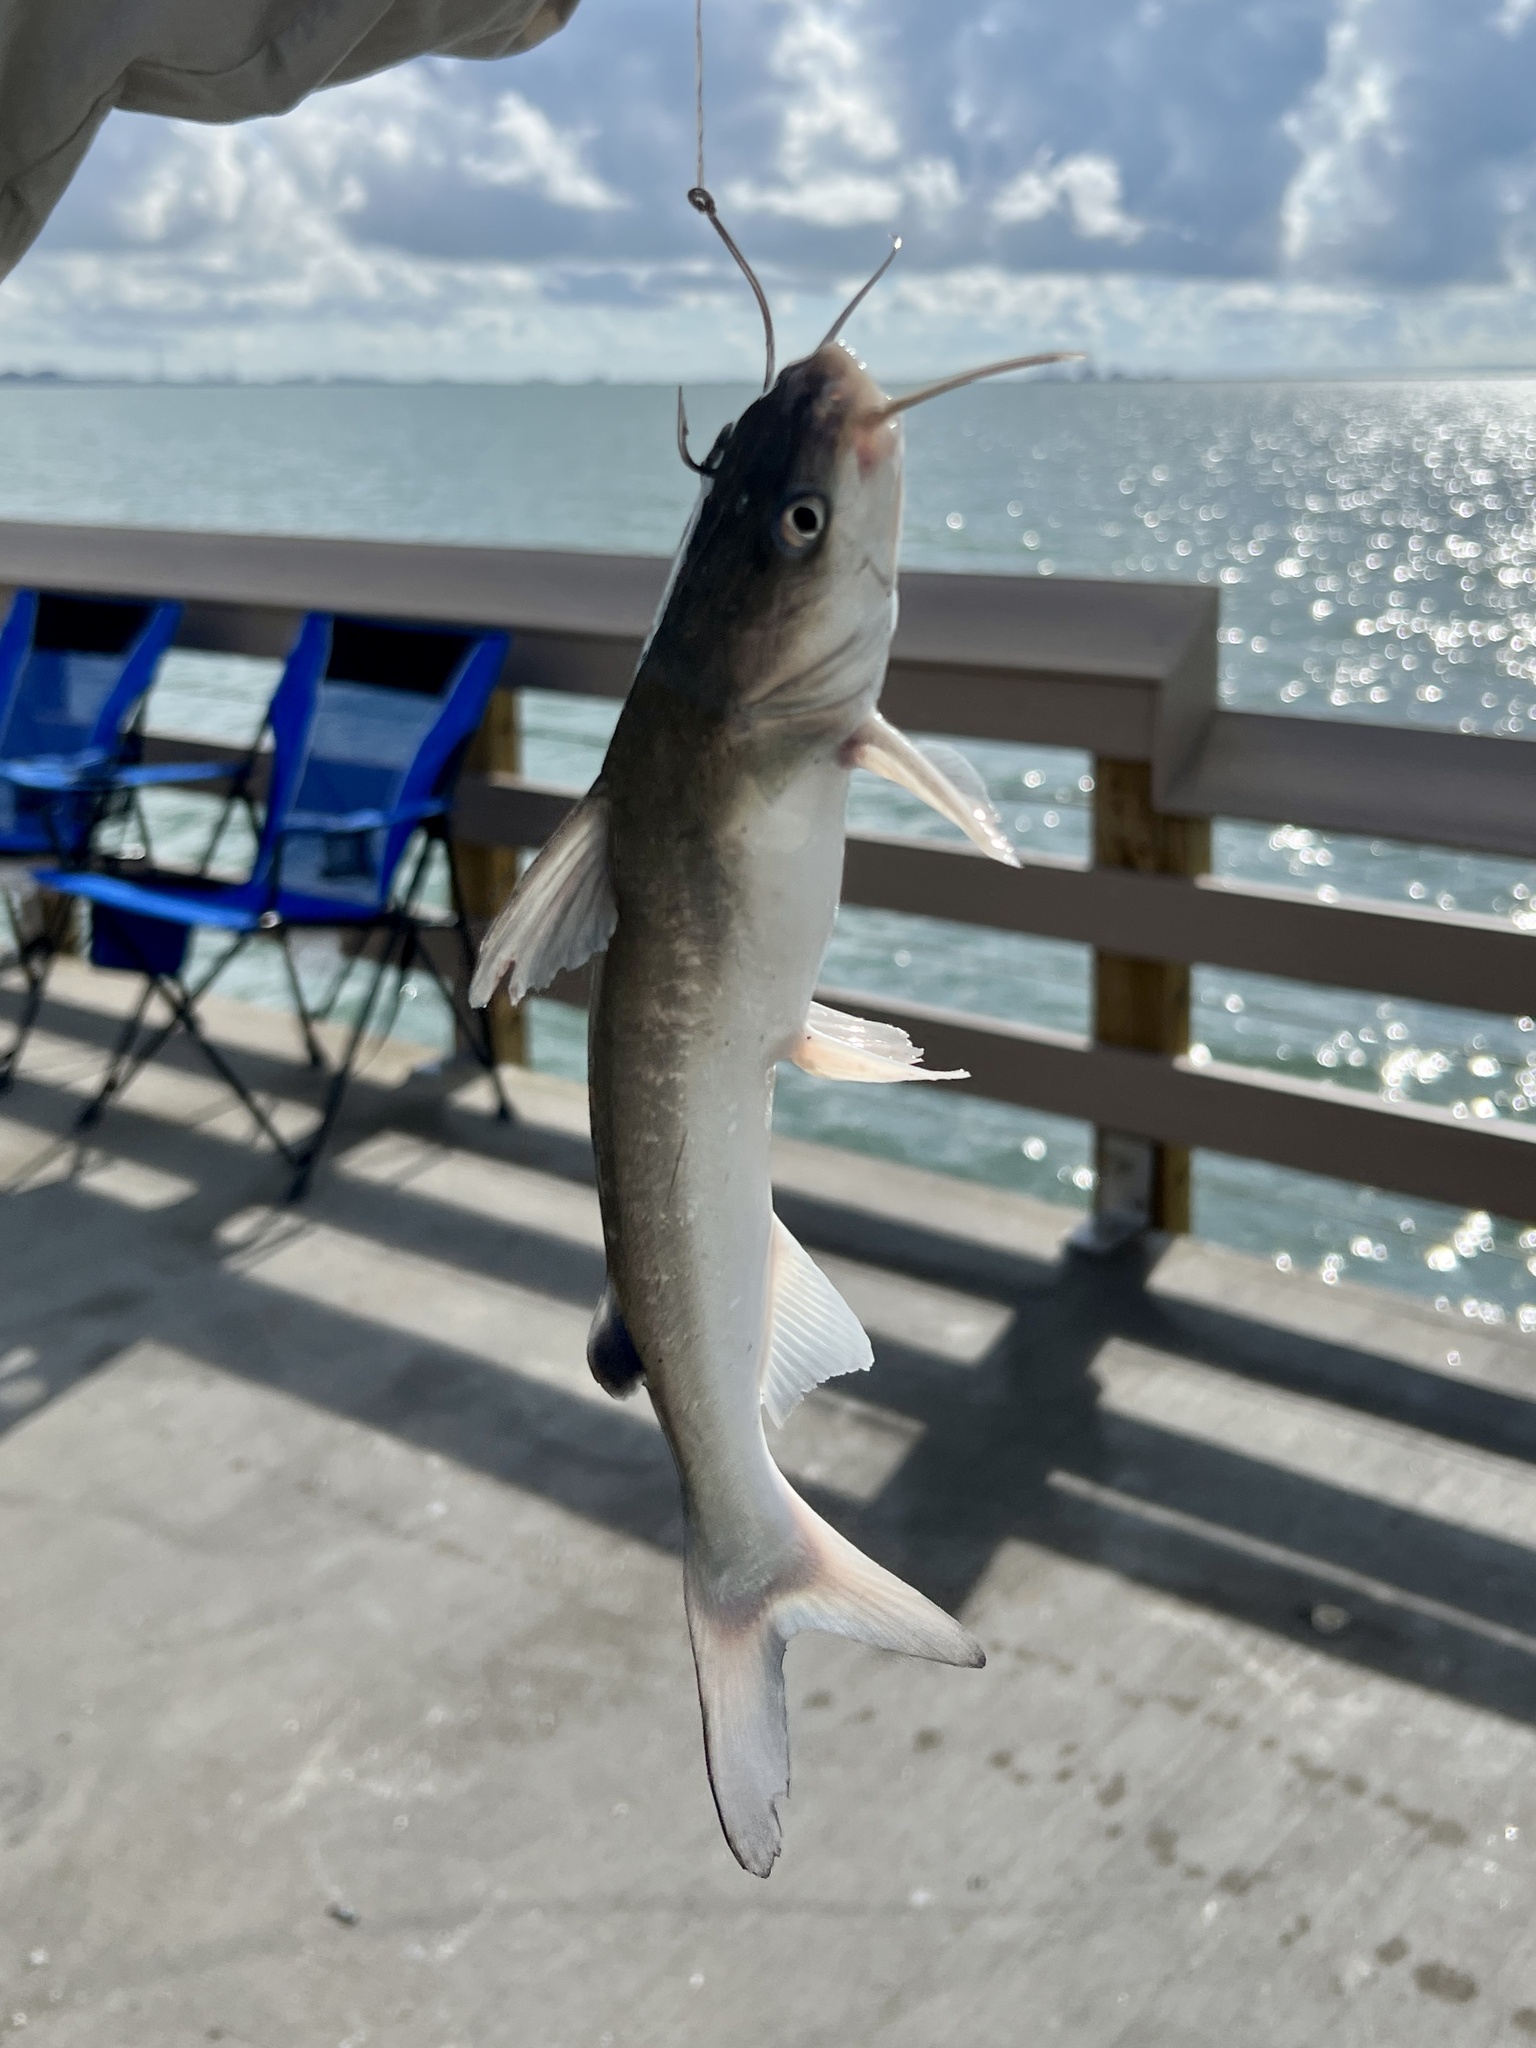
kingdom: Animalia
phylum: Chordata
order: Siluriformes
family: Ariidae
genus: Ariopsis
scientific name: Ariopsis felis
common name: Hardhead catfish
